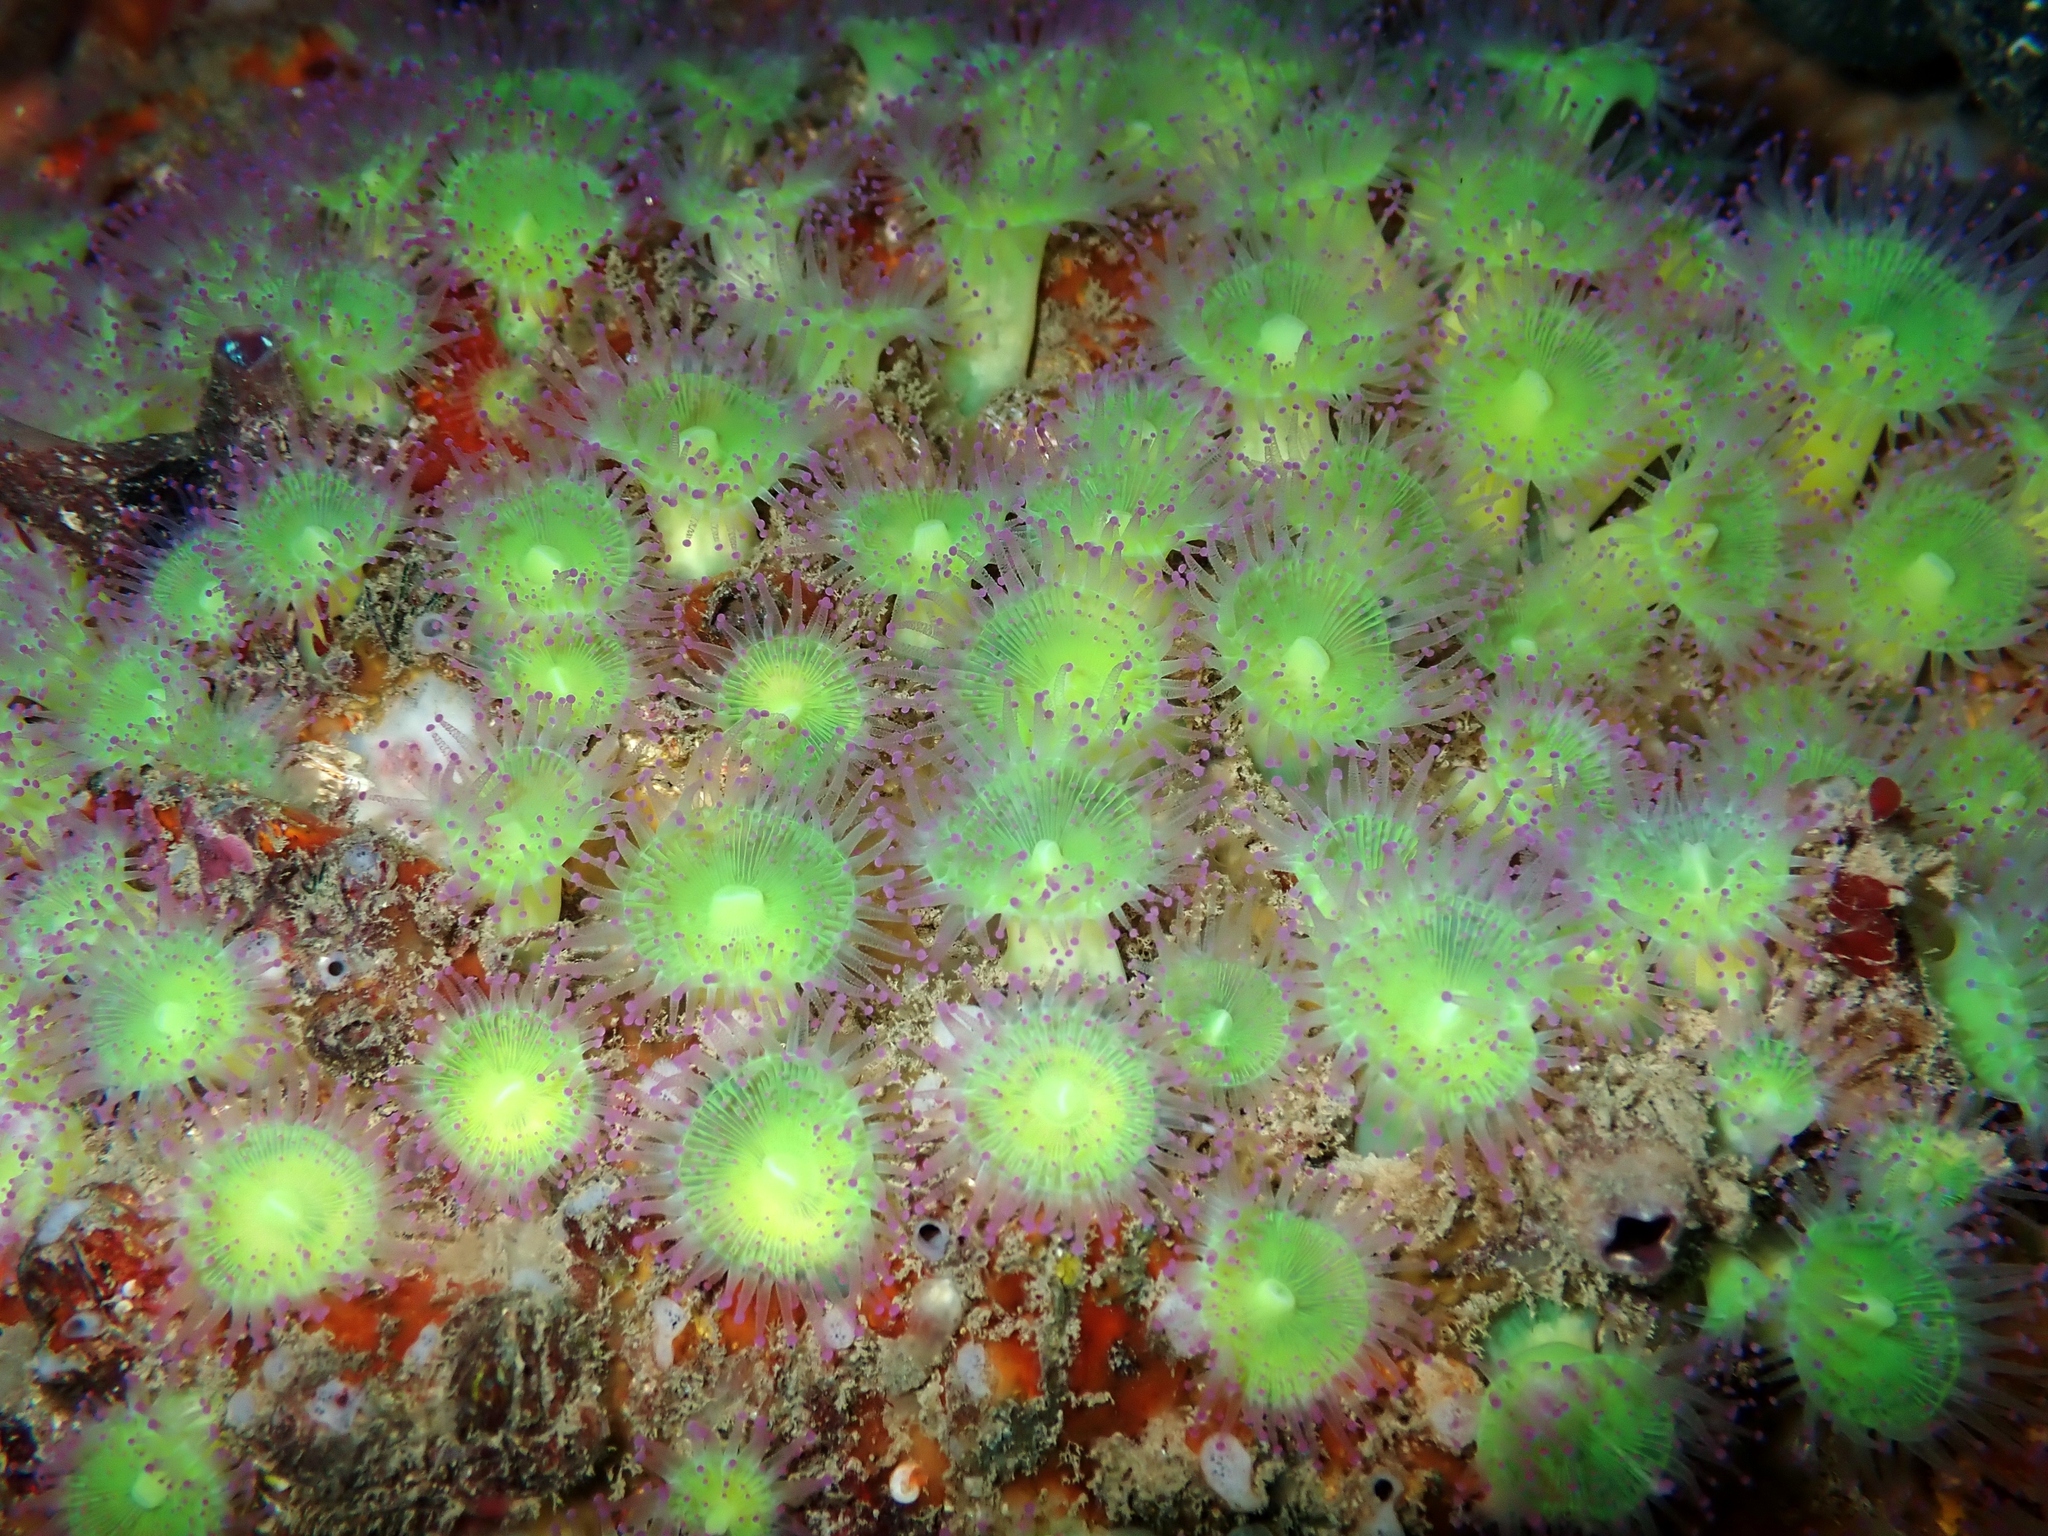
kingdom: Animalia
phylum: Cnidaria
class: Anthozoa
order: Corallimorpharia
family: Corallimorphidae
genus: Corynactis
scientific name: Corynactis australis
